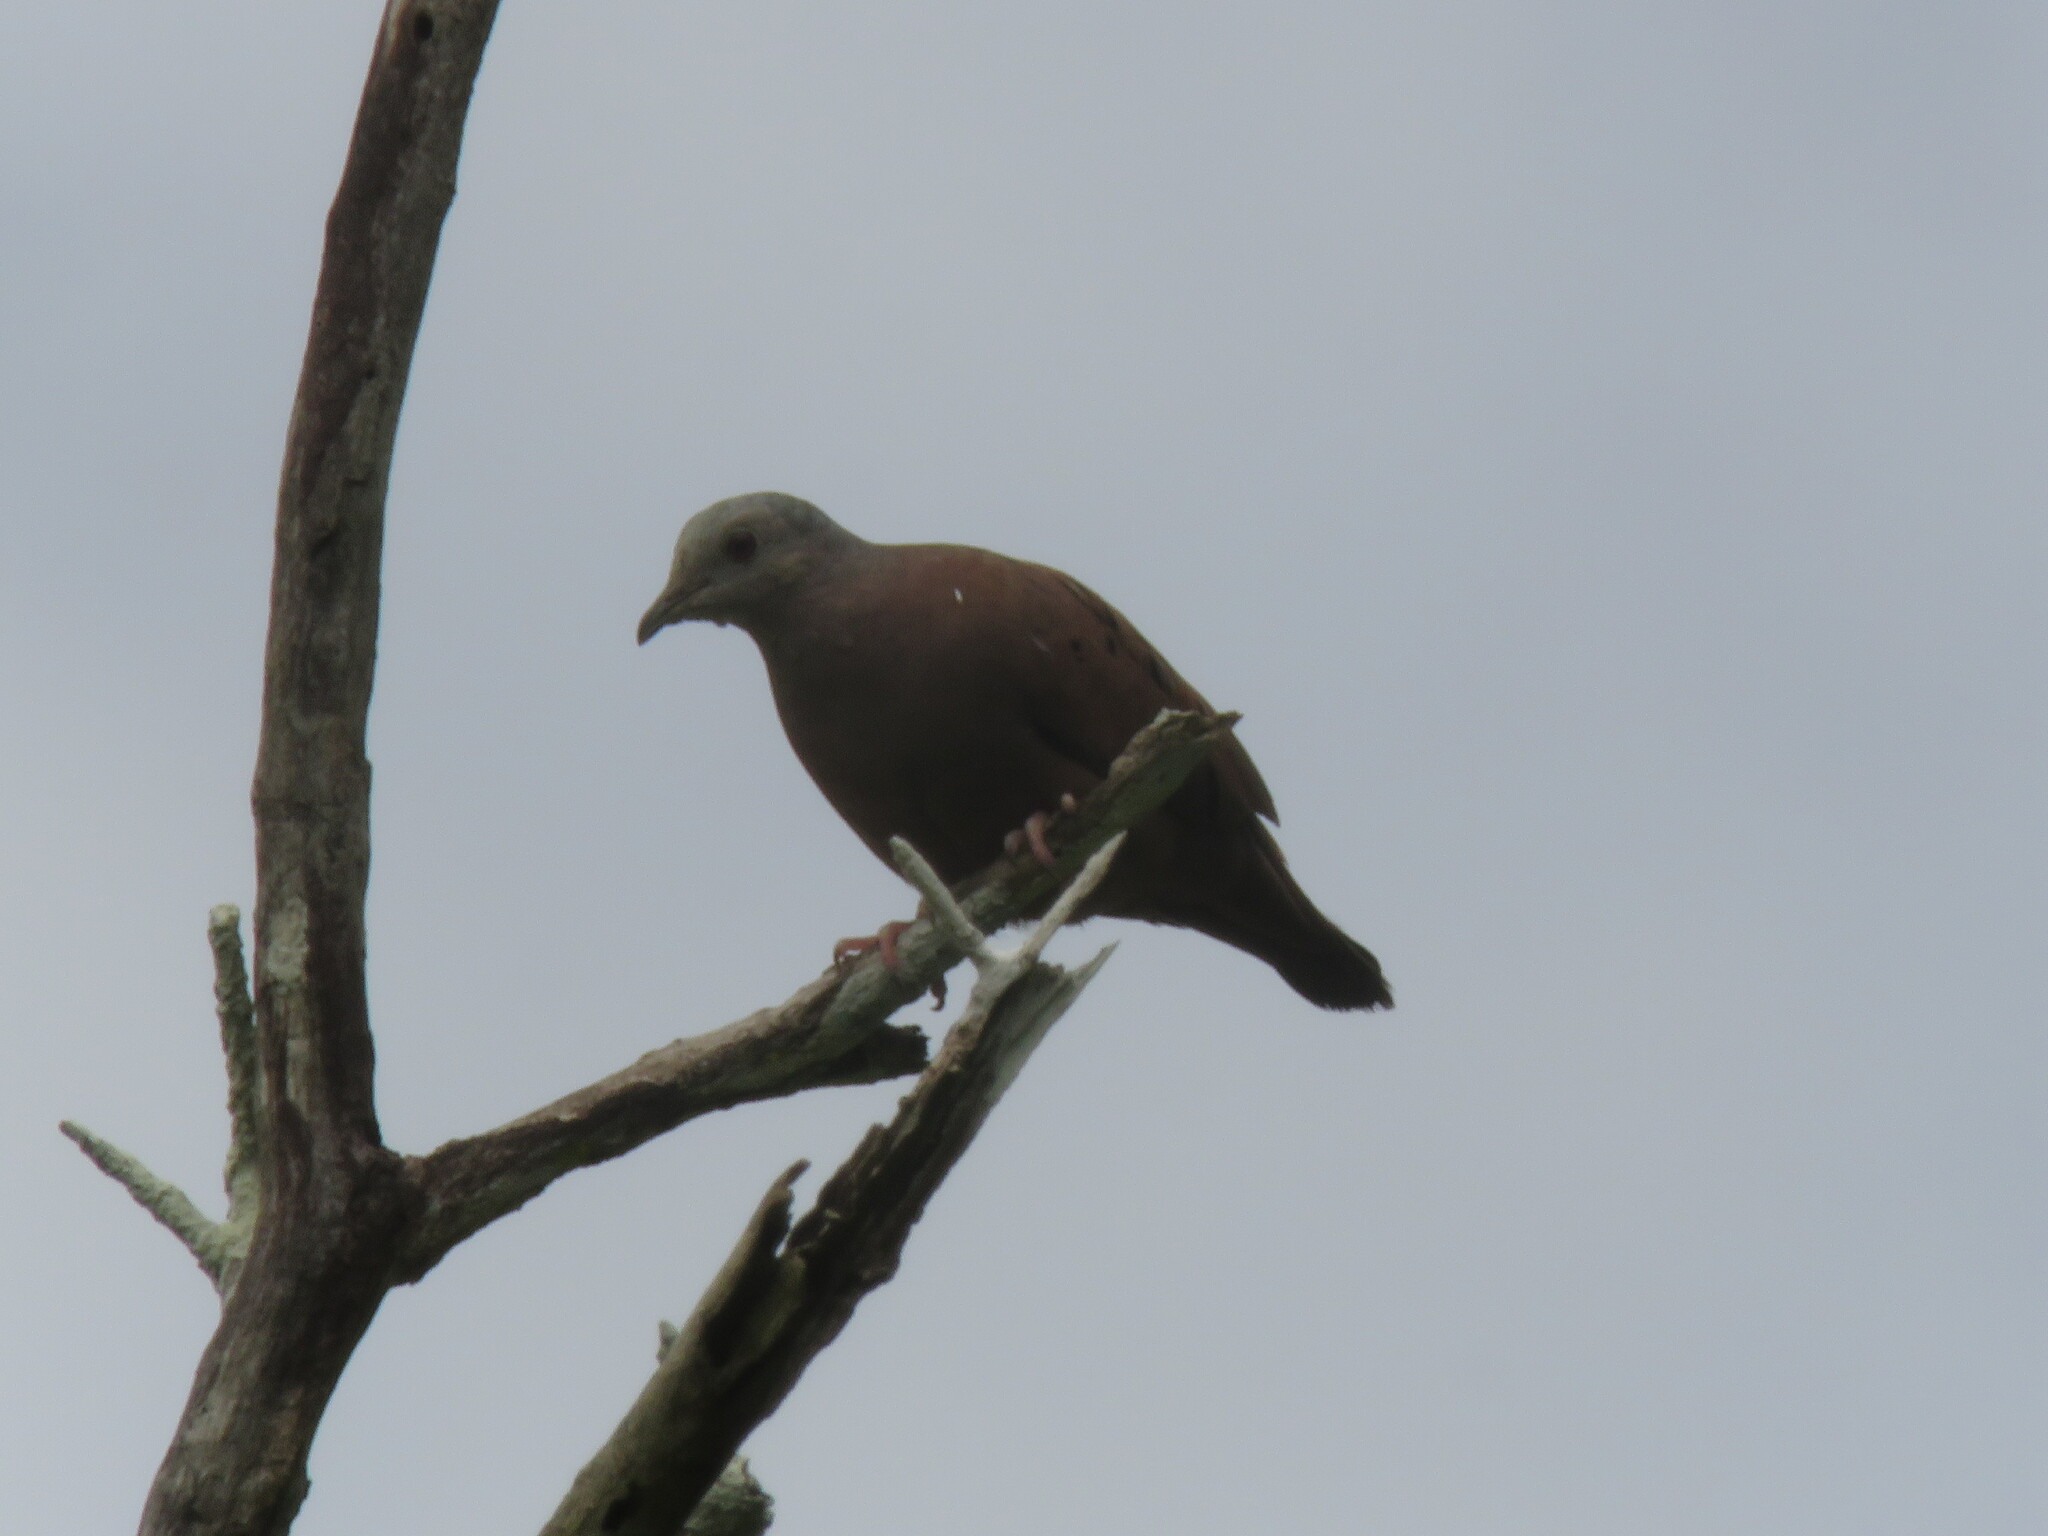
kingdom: Animalia
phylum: Chordata
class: Aves
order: Columbiformes
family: Columbidae
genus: Columbina
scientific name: Columbina talpacoti
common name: Ruddy ground dove
